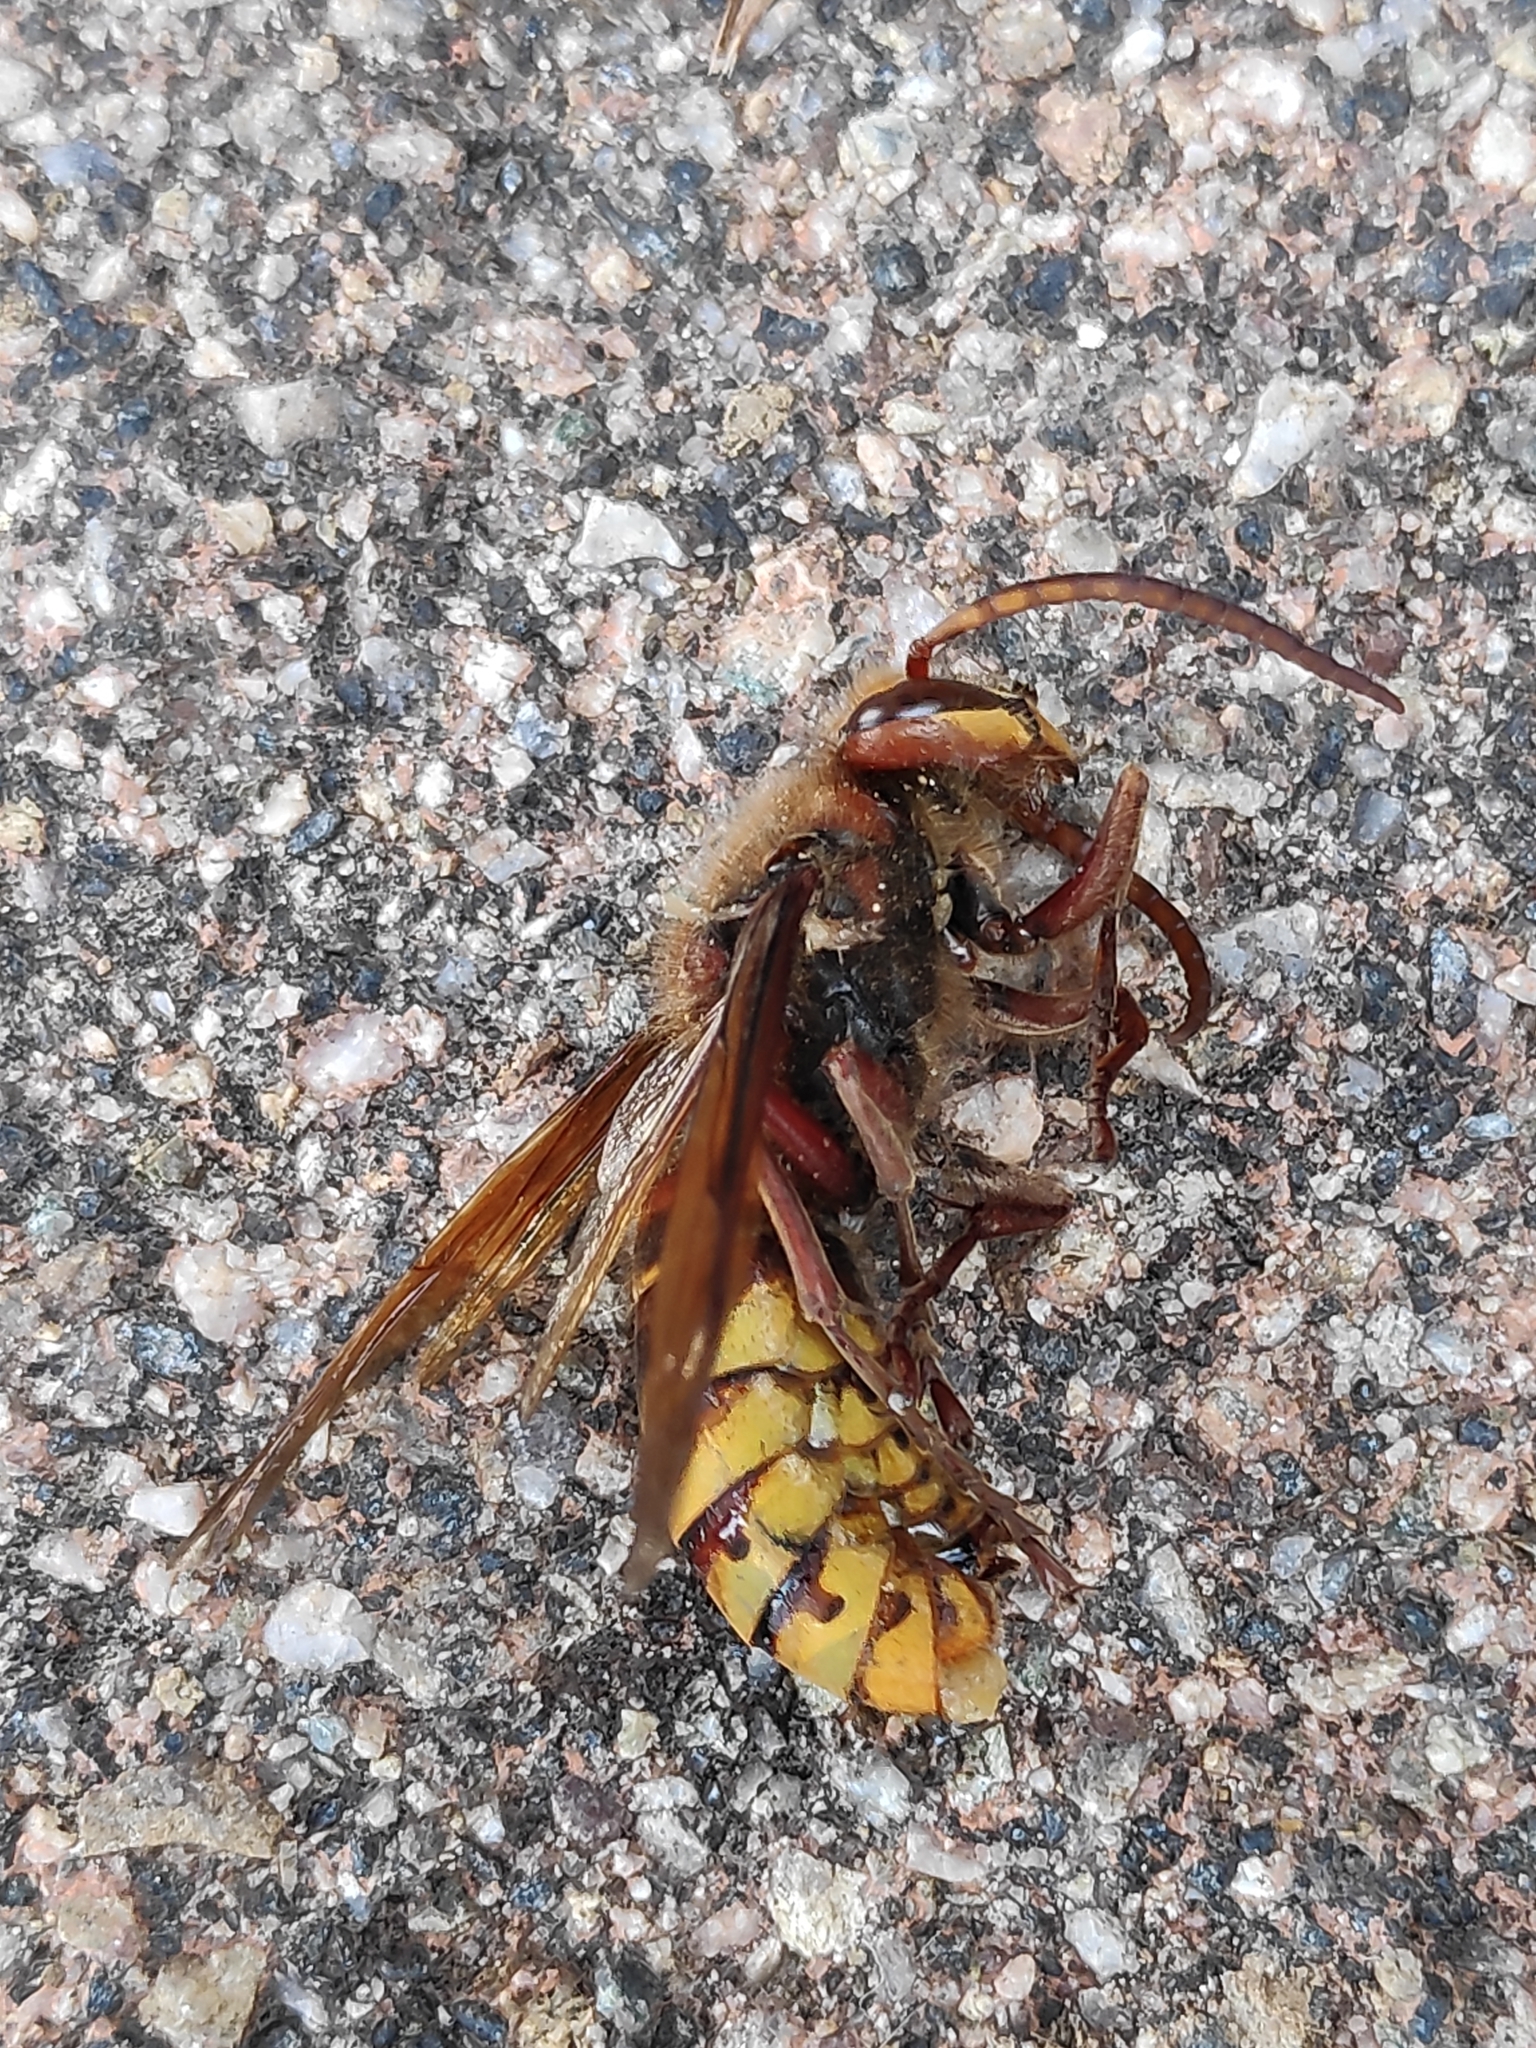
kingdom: Animalia
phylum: Arthropoda
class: Insecta
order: Hymenoptera
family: Vespidae
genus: Vespa
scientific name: Vespa crabro
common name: Hornet
